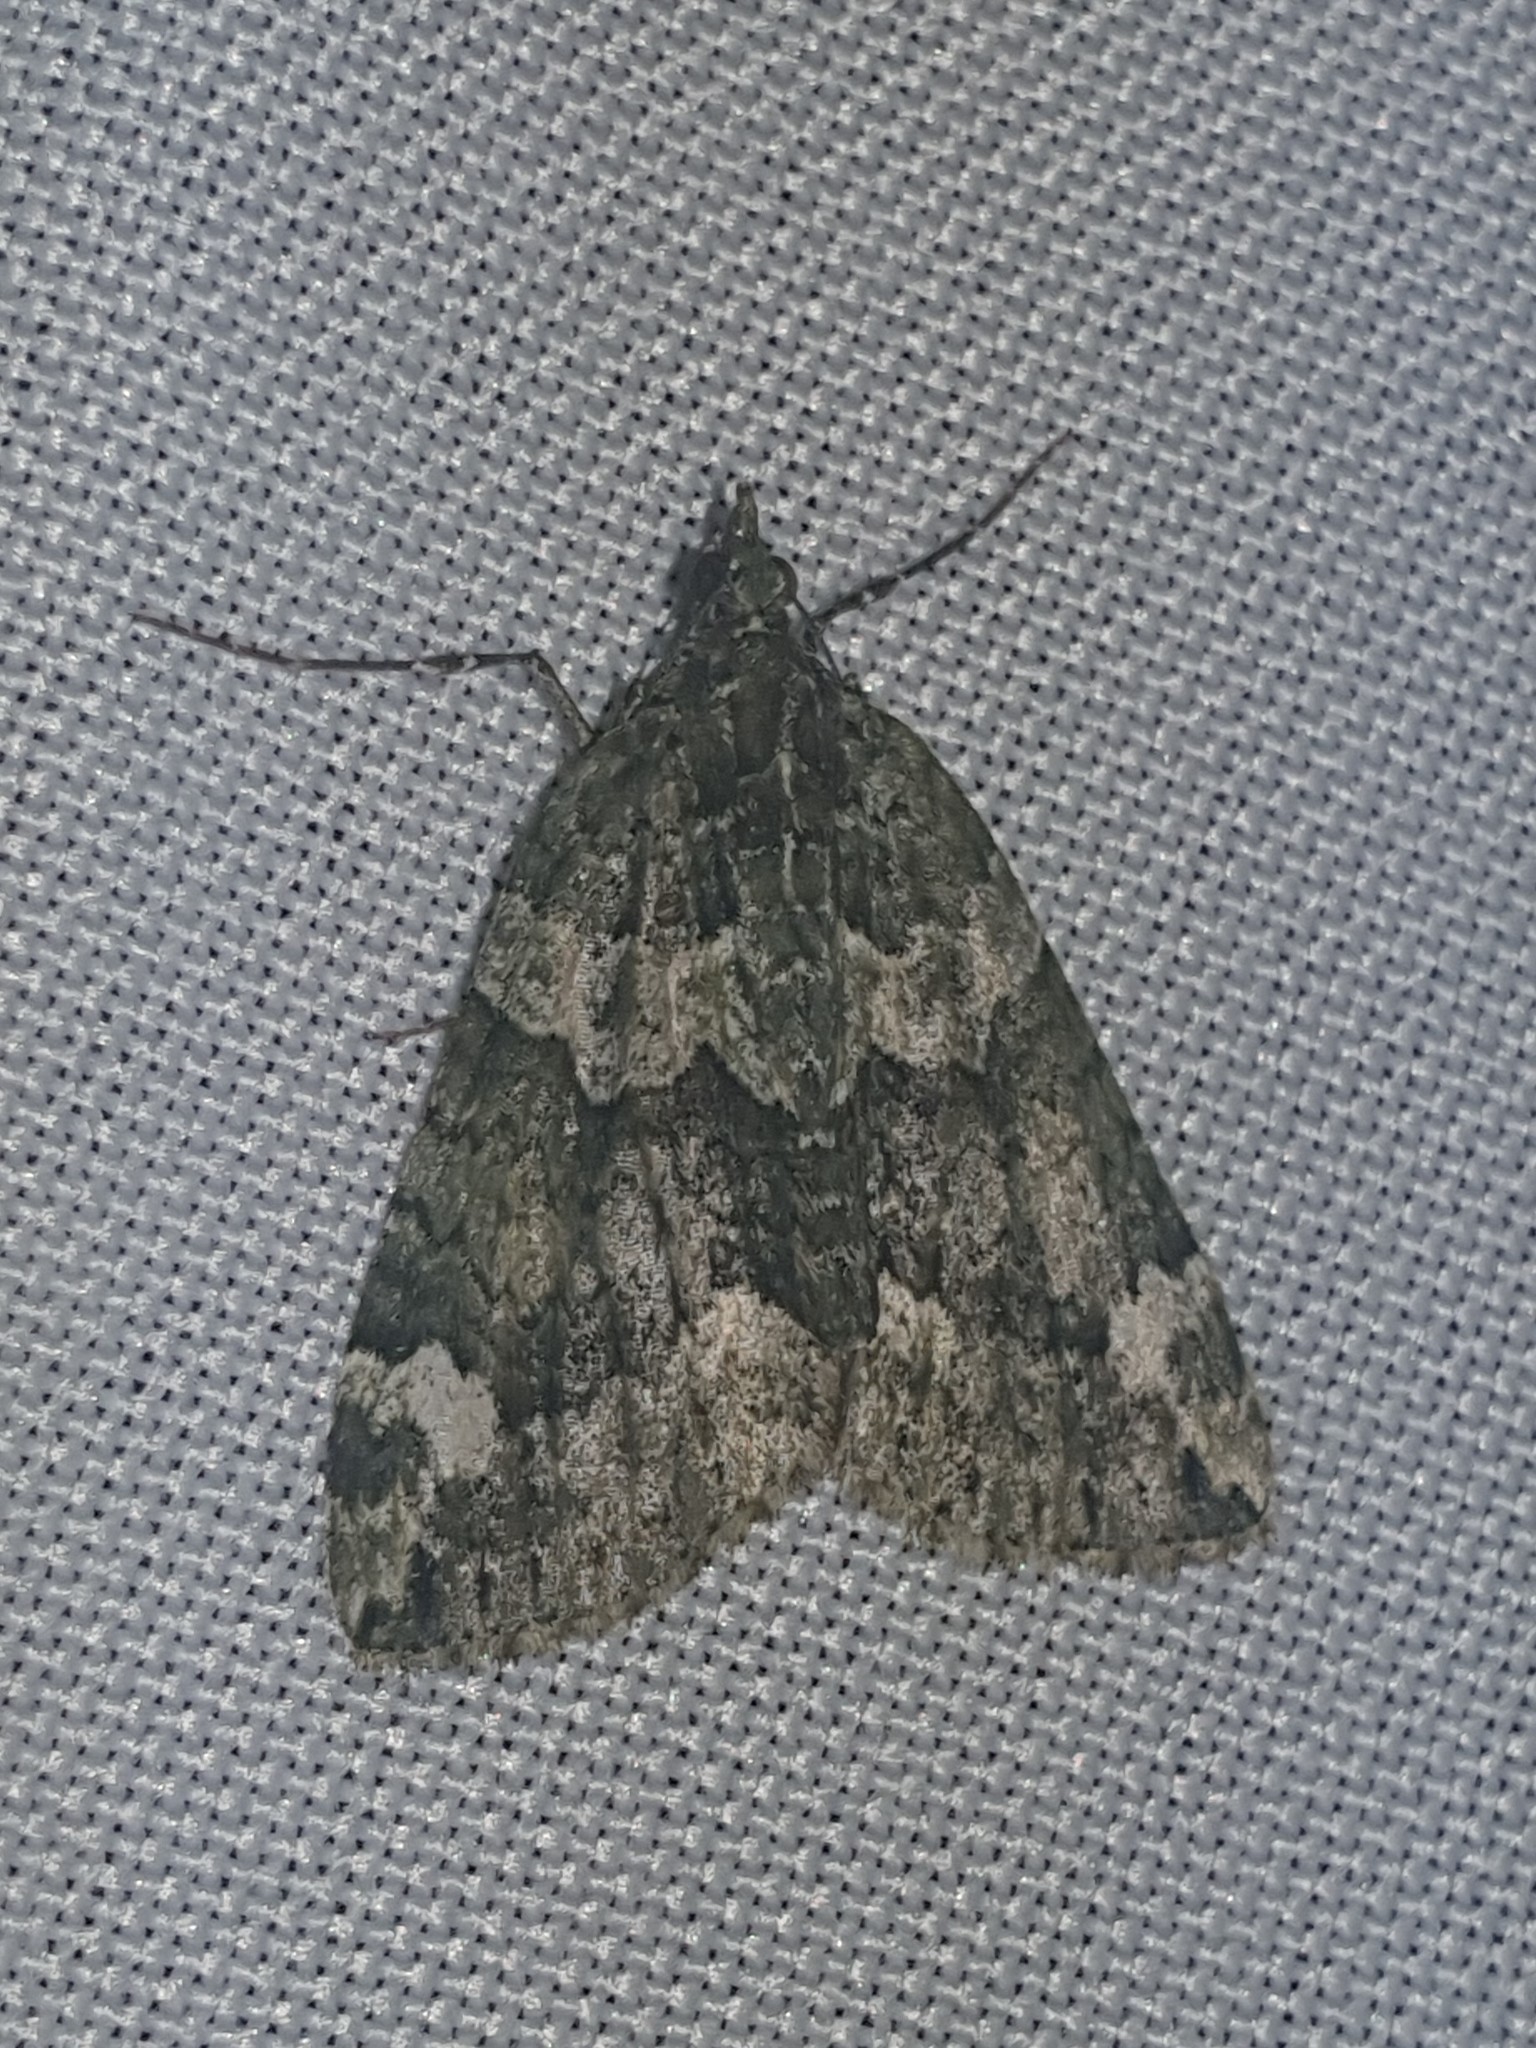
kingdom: Animalia
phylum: Arthropoda
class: Insecta
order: Lepidoptera
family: Geometridae
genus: Chloroclysta
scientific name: Chloroclysta siterata
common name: Red-green carpet
